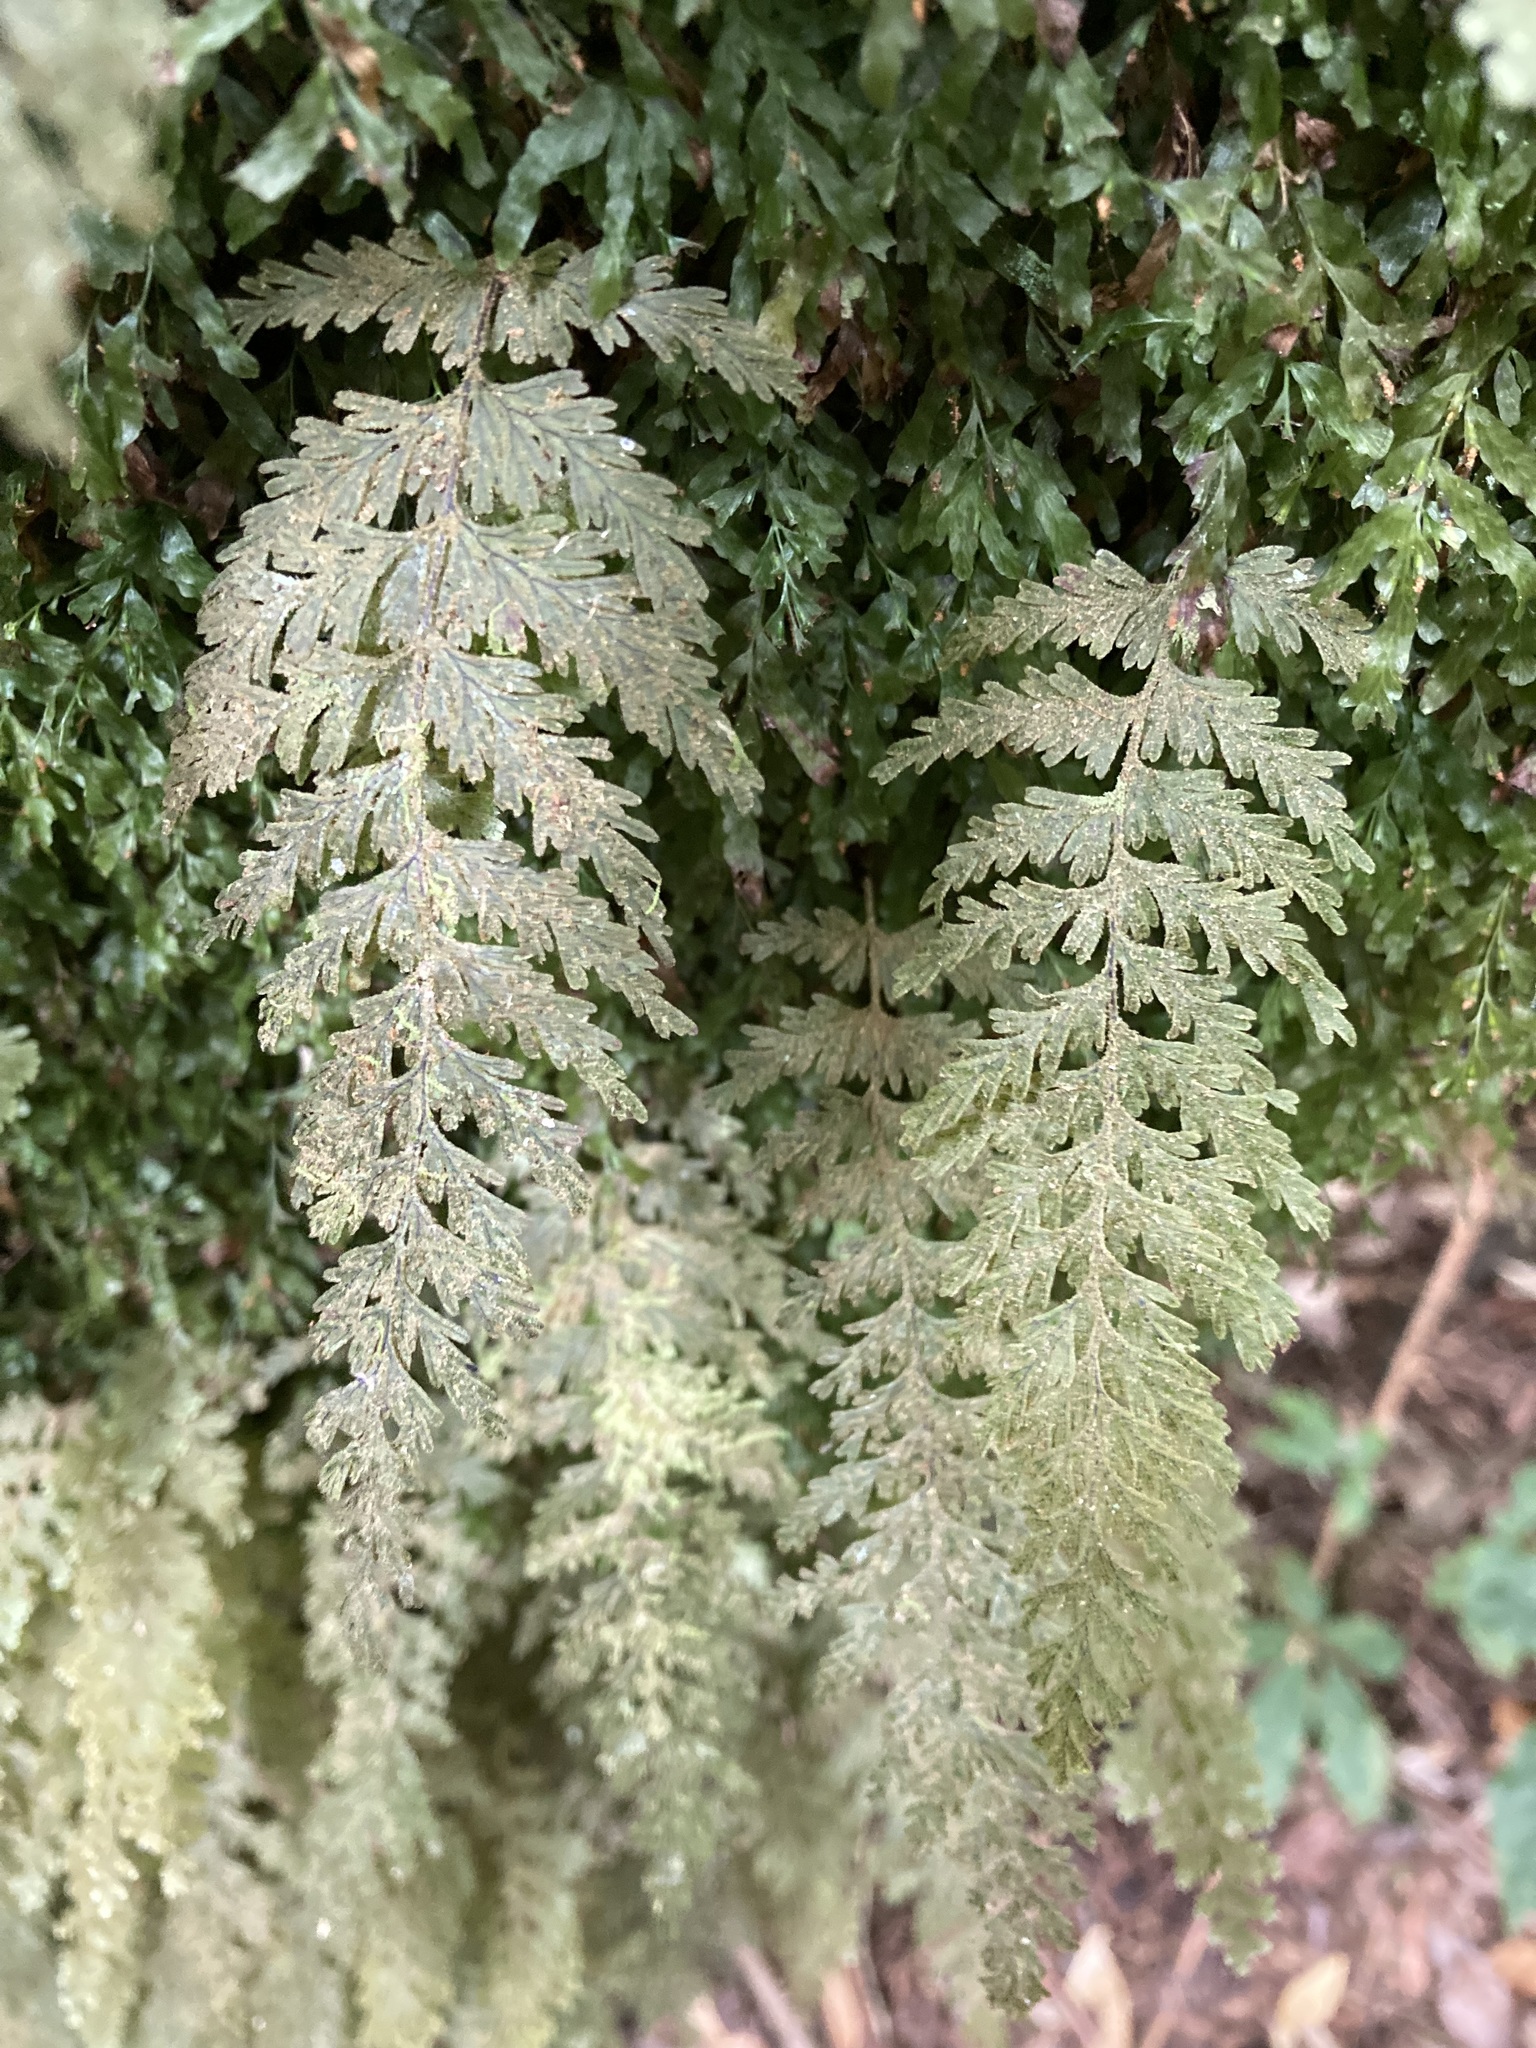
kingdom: Plantae
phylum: Tracheophyta
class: Polypodiopsida
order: Hymenophyllales
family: Hymenophyllaceae
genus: Hymenophyllum
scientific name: Hymenophyllum frankliniae
